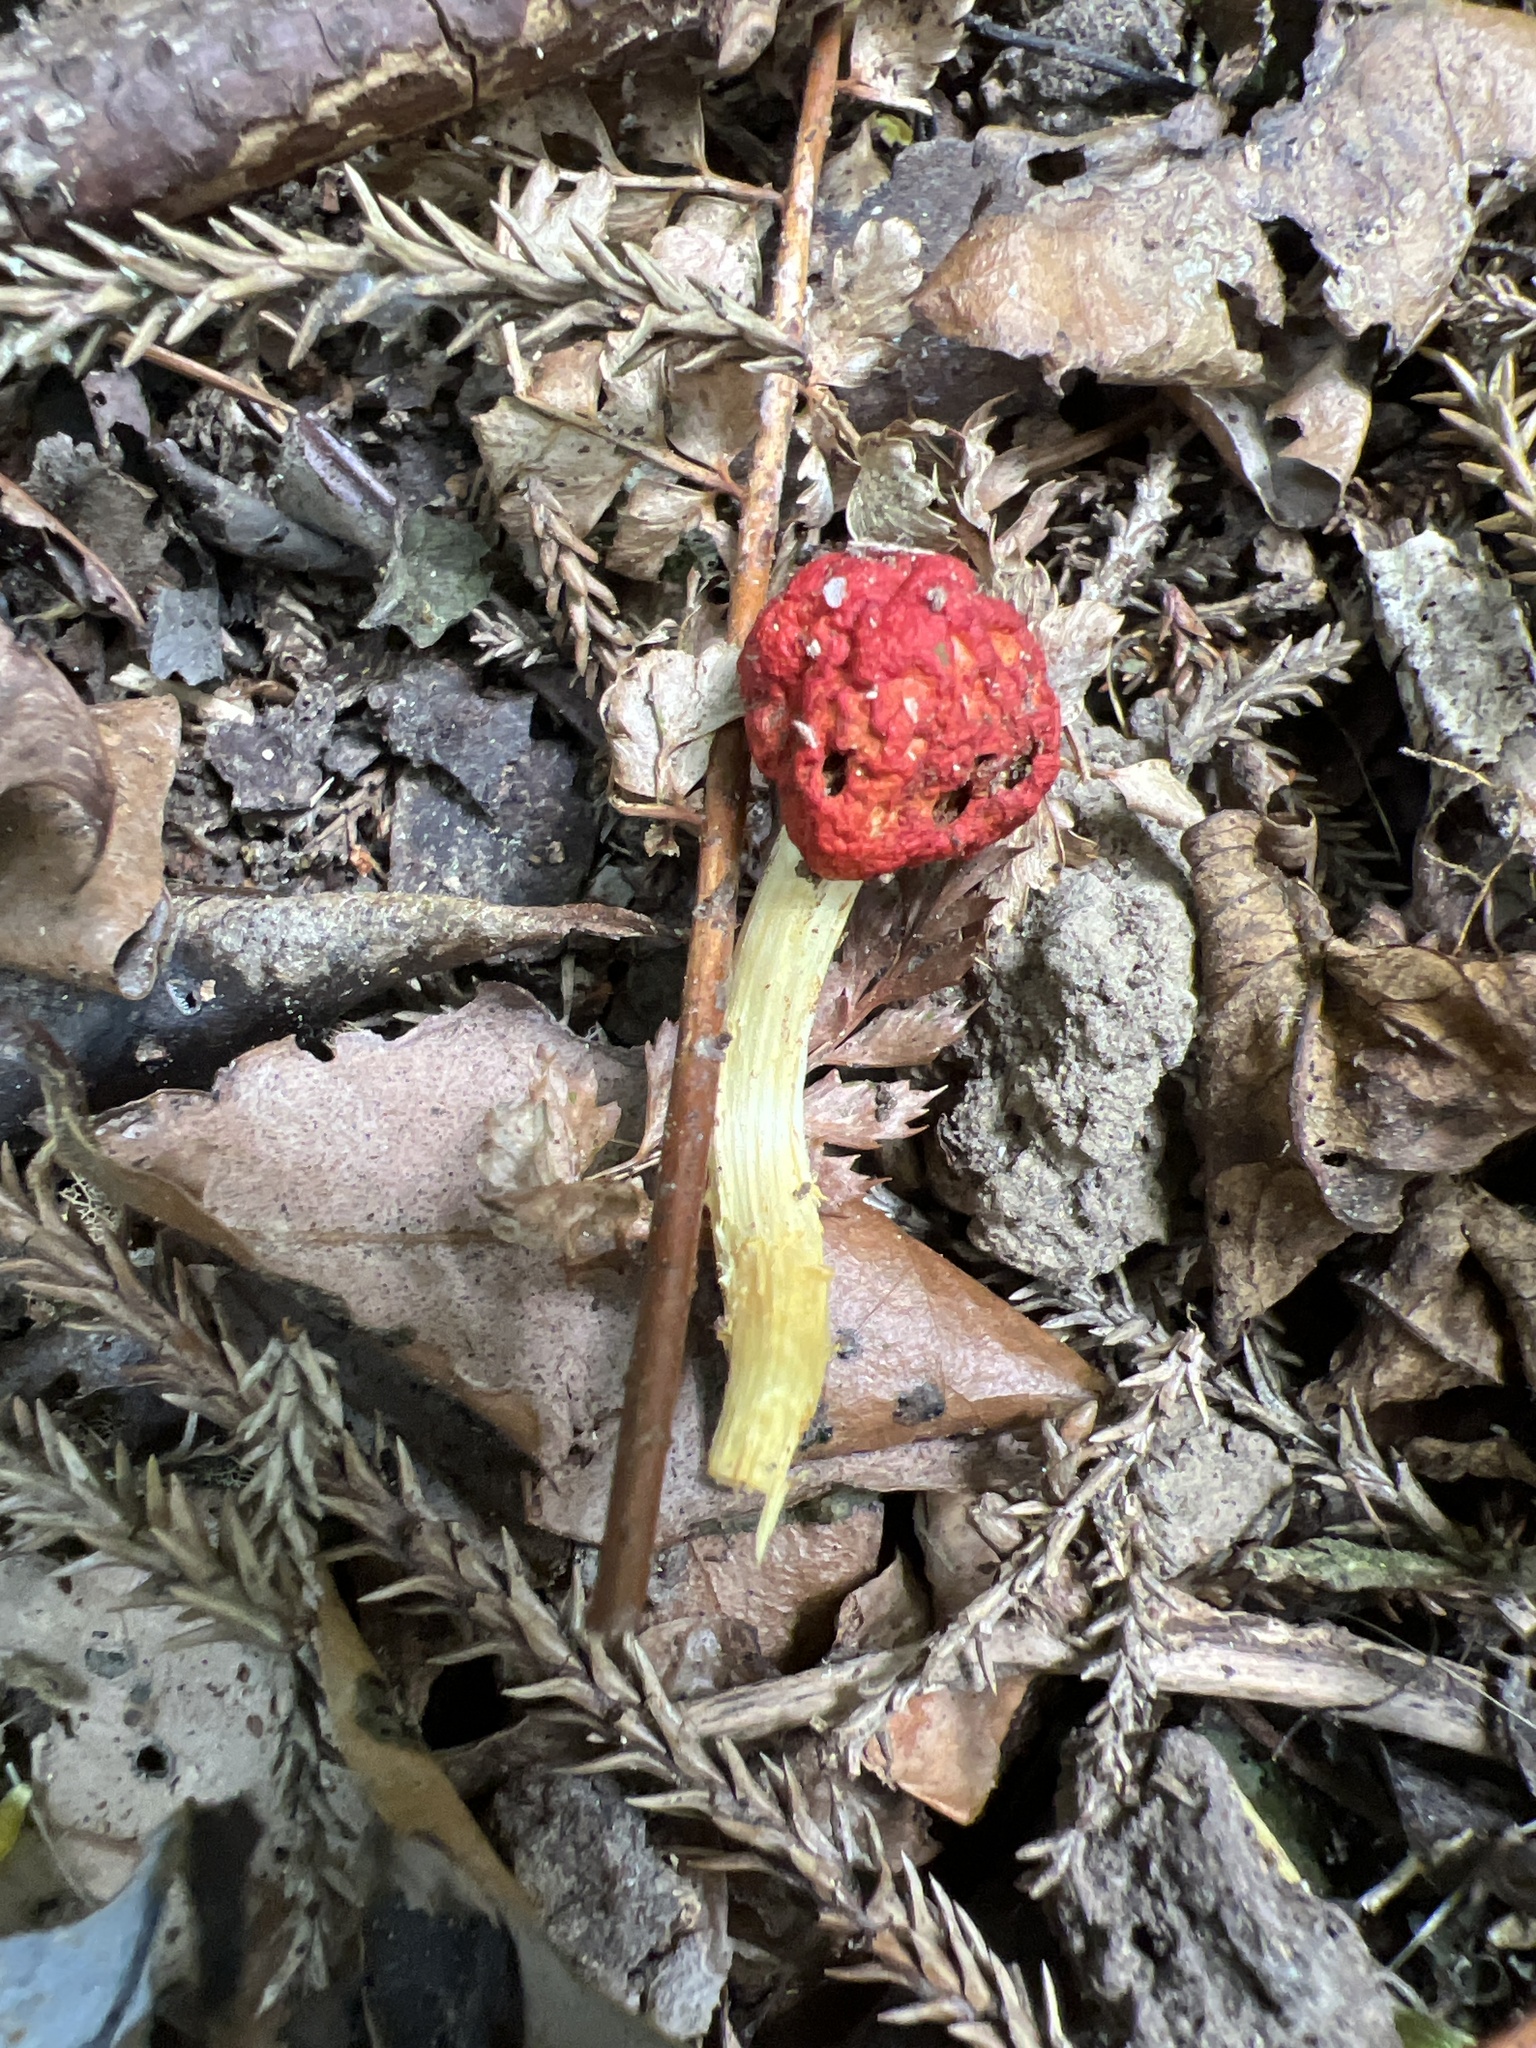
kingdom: Fungi
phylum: Basidiomycota
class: Agaricomycetes
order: Agaricales
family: Strophariaceae
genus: Leratiomyces
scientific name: Leratiomyces erythrocephalus
